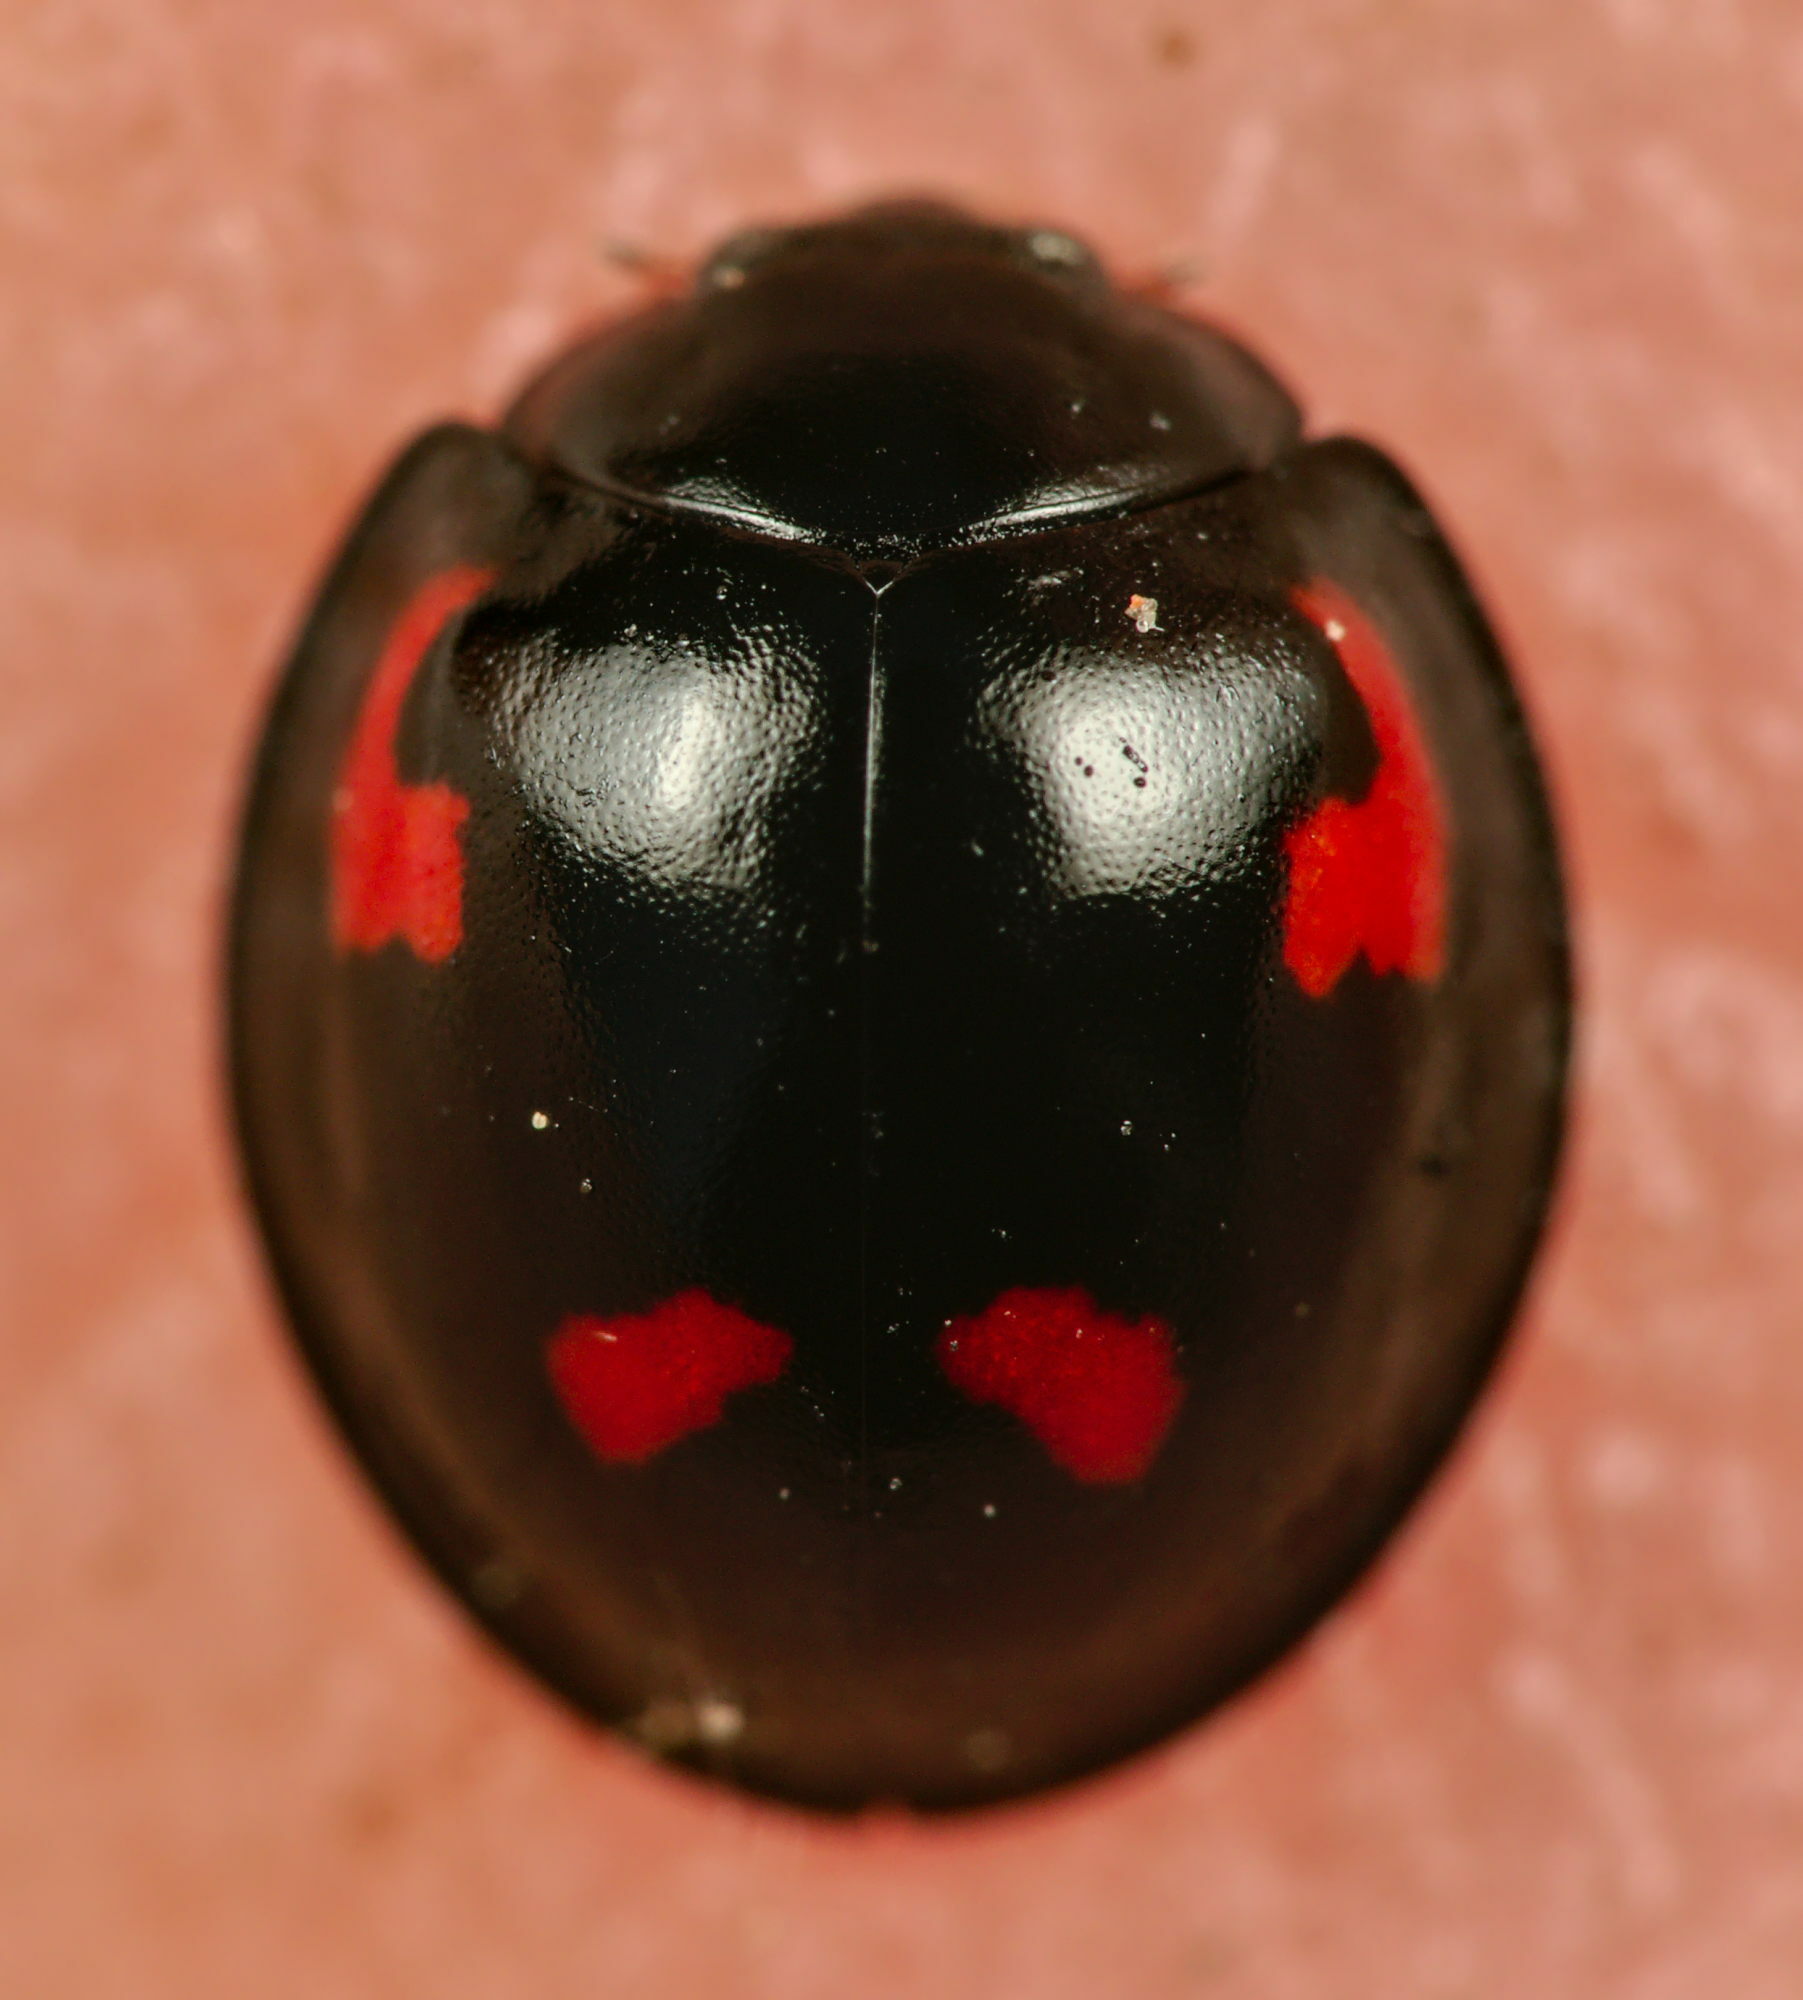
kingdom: Animalia
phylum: Arthropoda
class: Insecta
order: Coleoptera
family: Coccinellidae
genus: Brumus
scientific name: Brumus quadripustulatus
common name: Ladybird beetle
